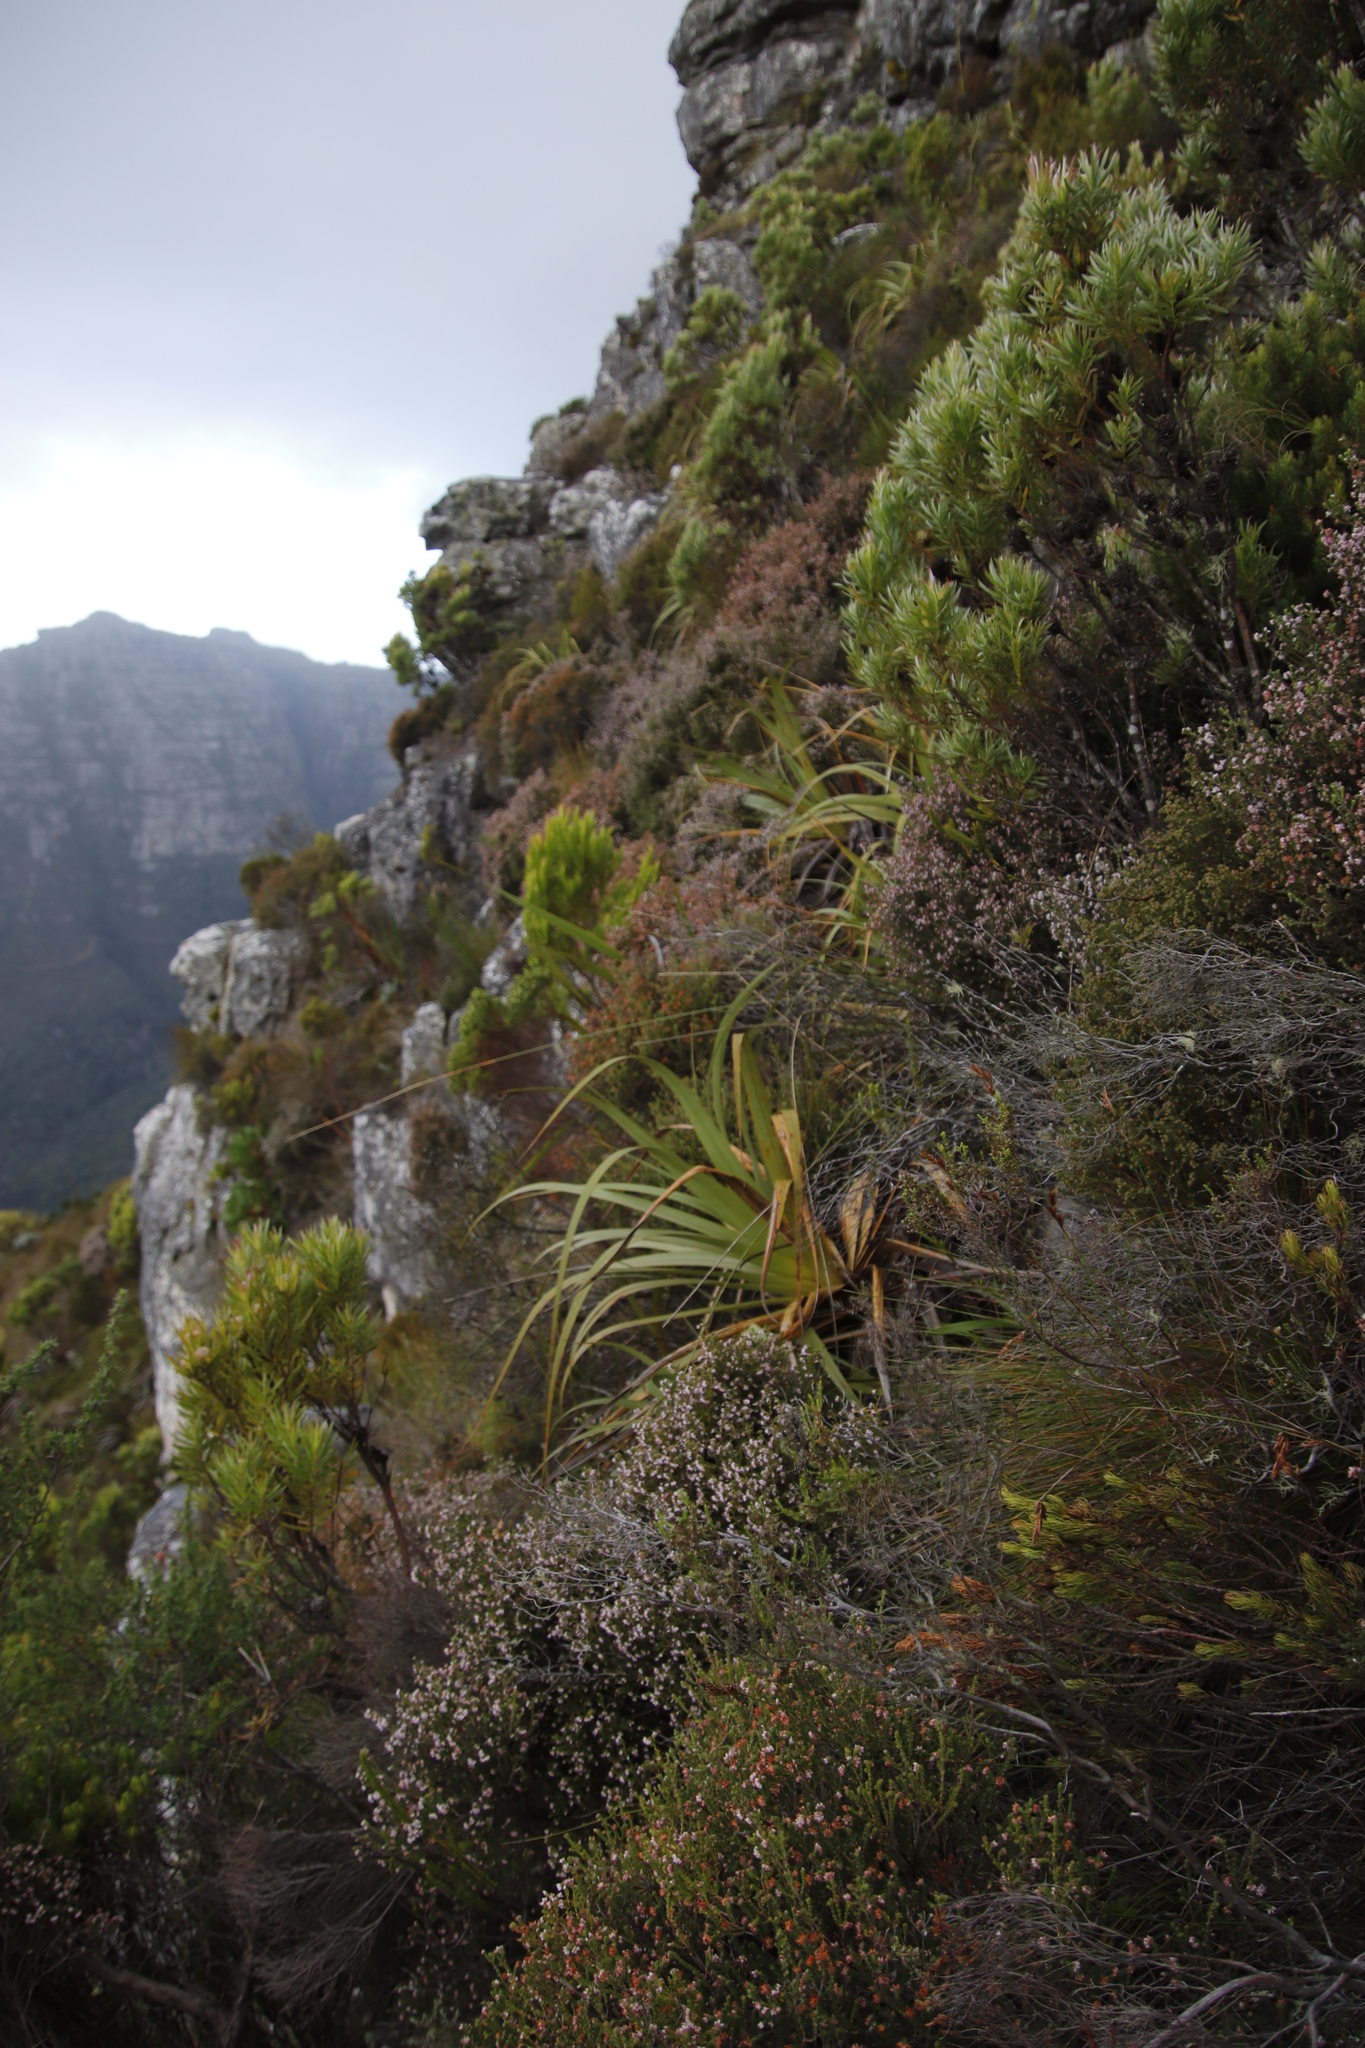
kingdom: Plantae
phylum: Tracheophyta
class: Magnoliopsida
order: Ericales
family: Ericaceae
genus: Erica
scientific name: Erica ericoides
